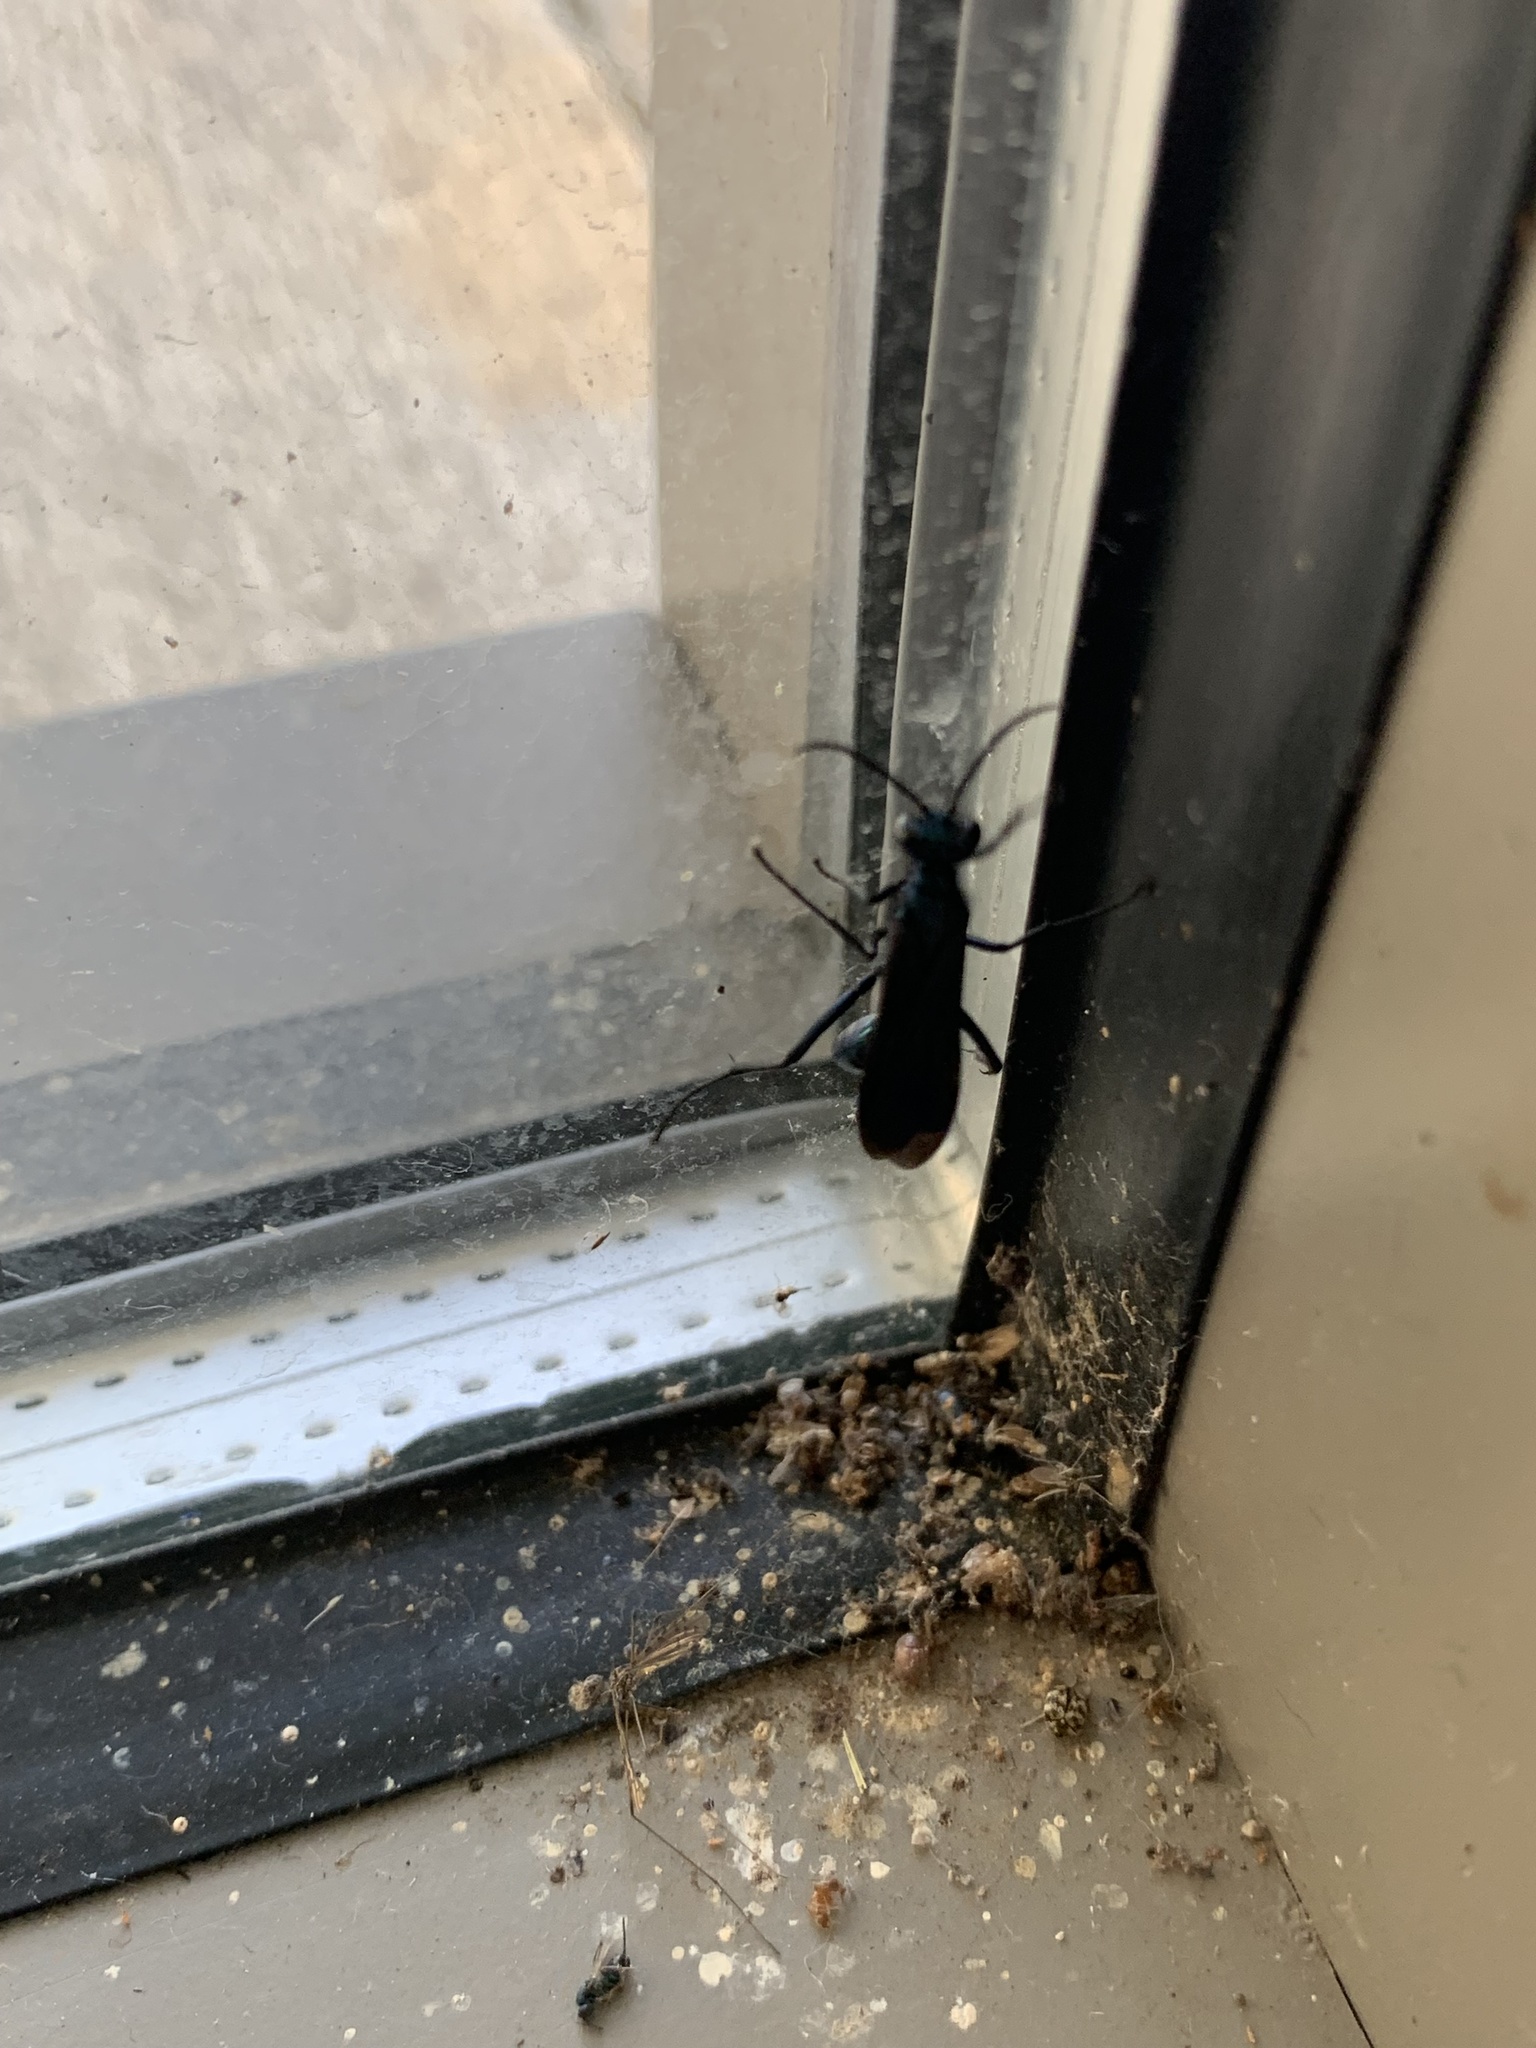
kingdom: Animalia
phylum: Arthropoda
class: Insecta
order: Hymenoptera
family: Sphecidae
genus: Chalybion
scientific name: Chalybion californicum
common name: Mud dauber
